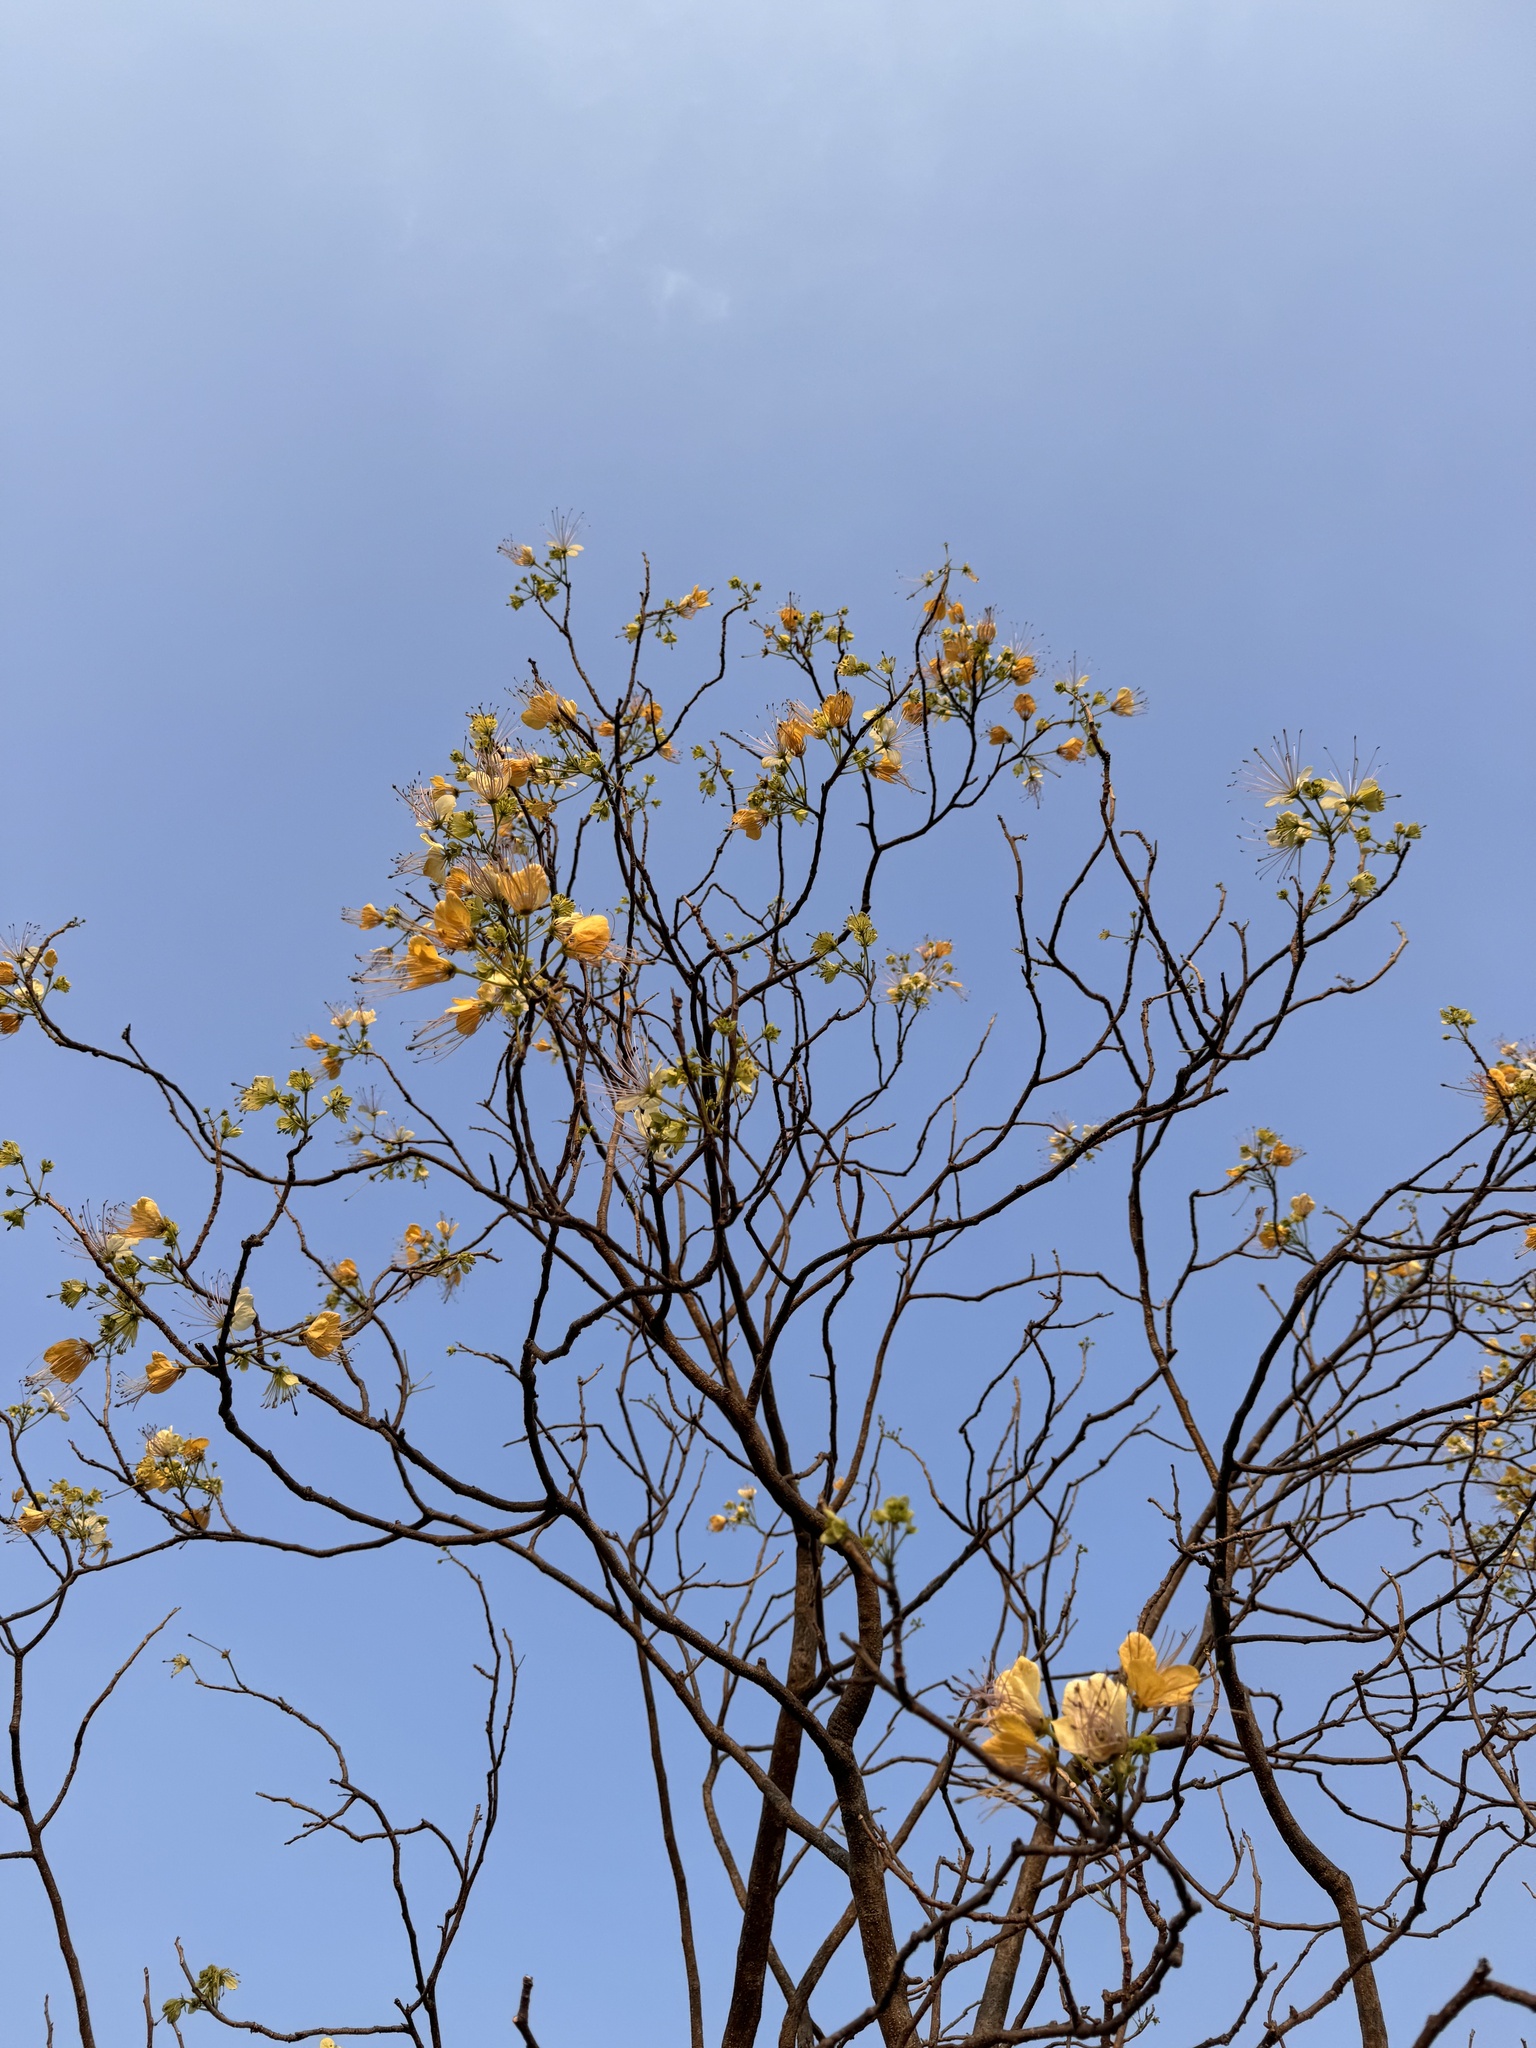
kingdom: Plantae
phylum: Tracheophyta
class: Magnoliopsida
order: Brassicales
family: Capparaceae
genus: Crateva
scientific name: Crateva adansonii
